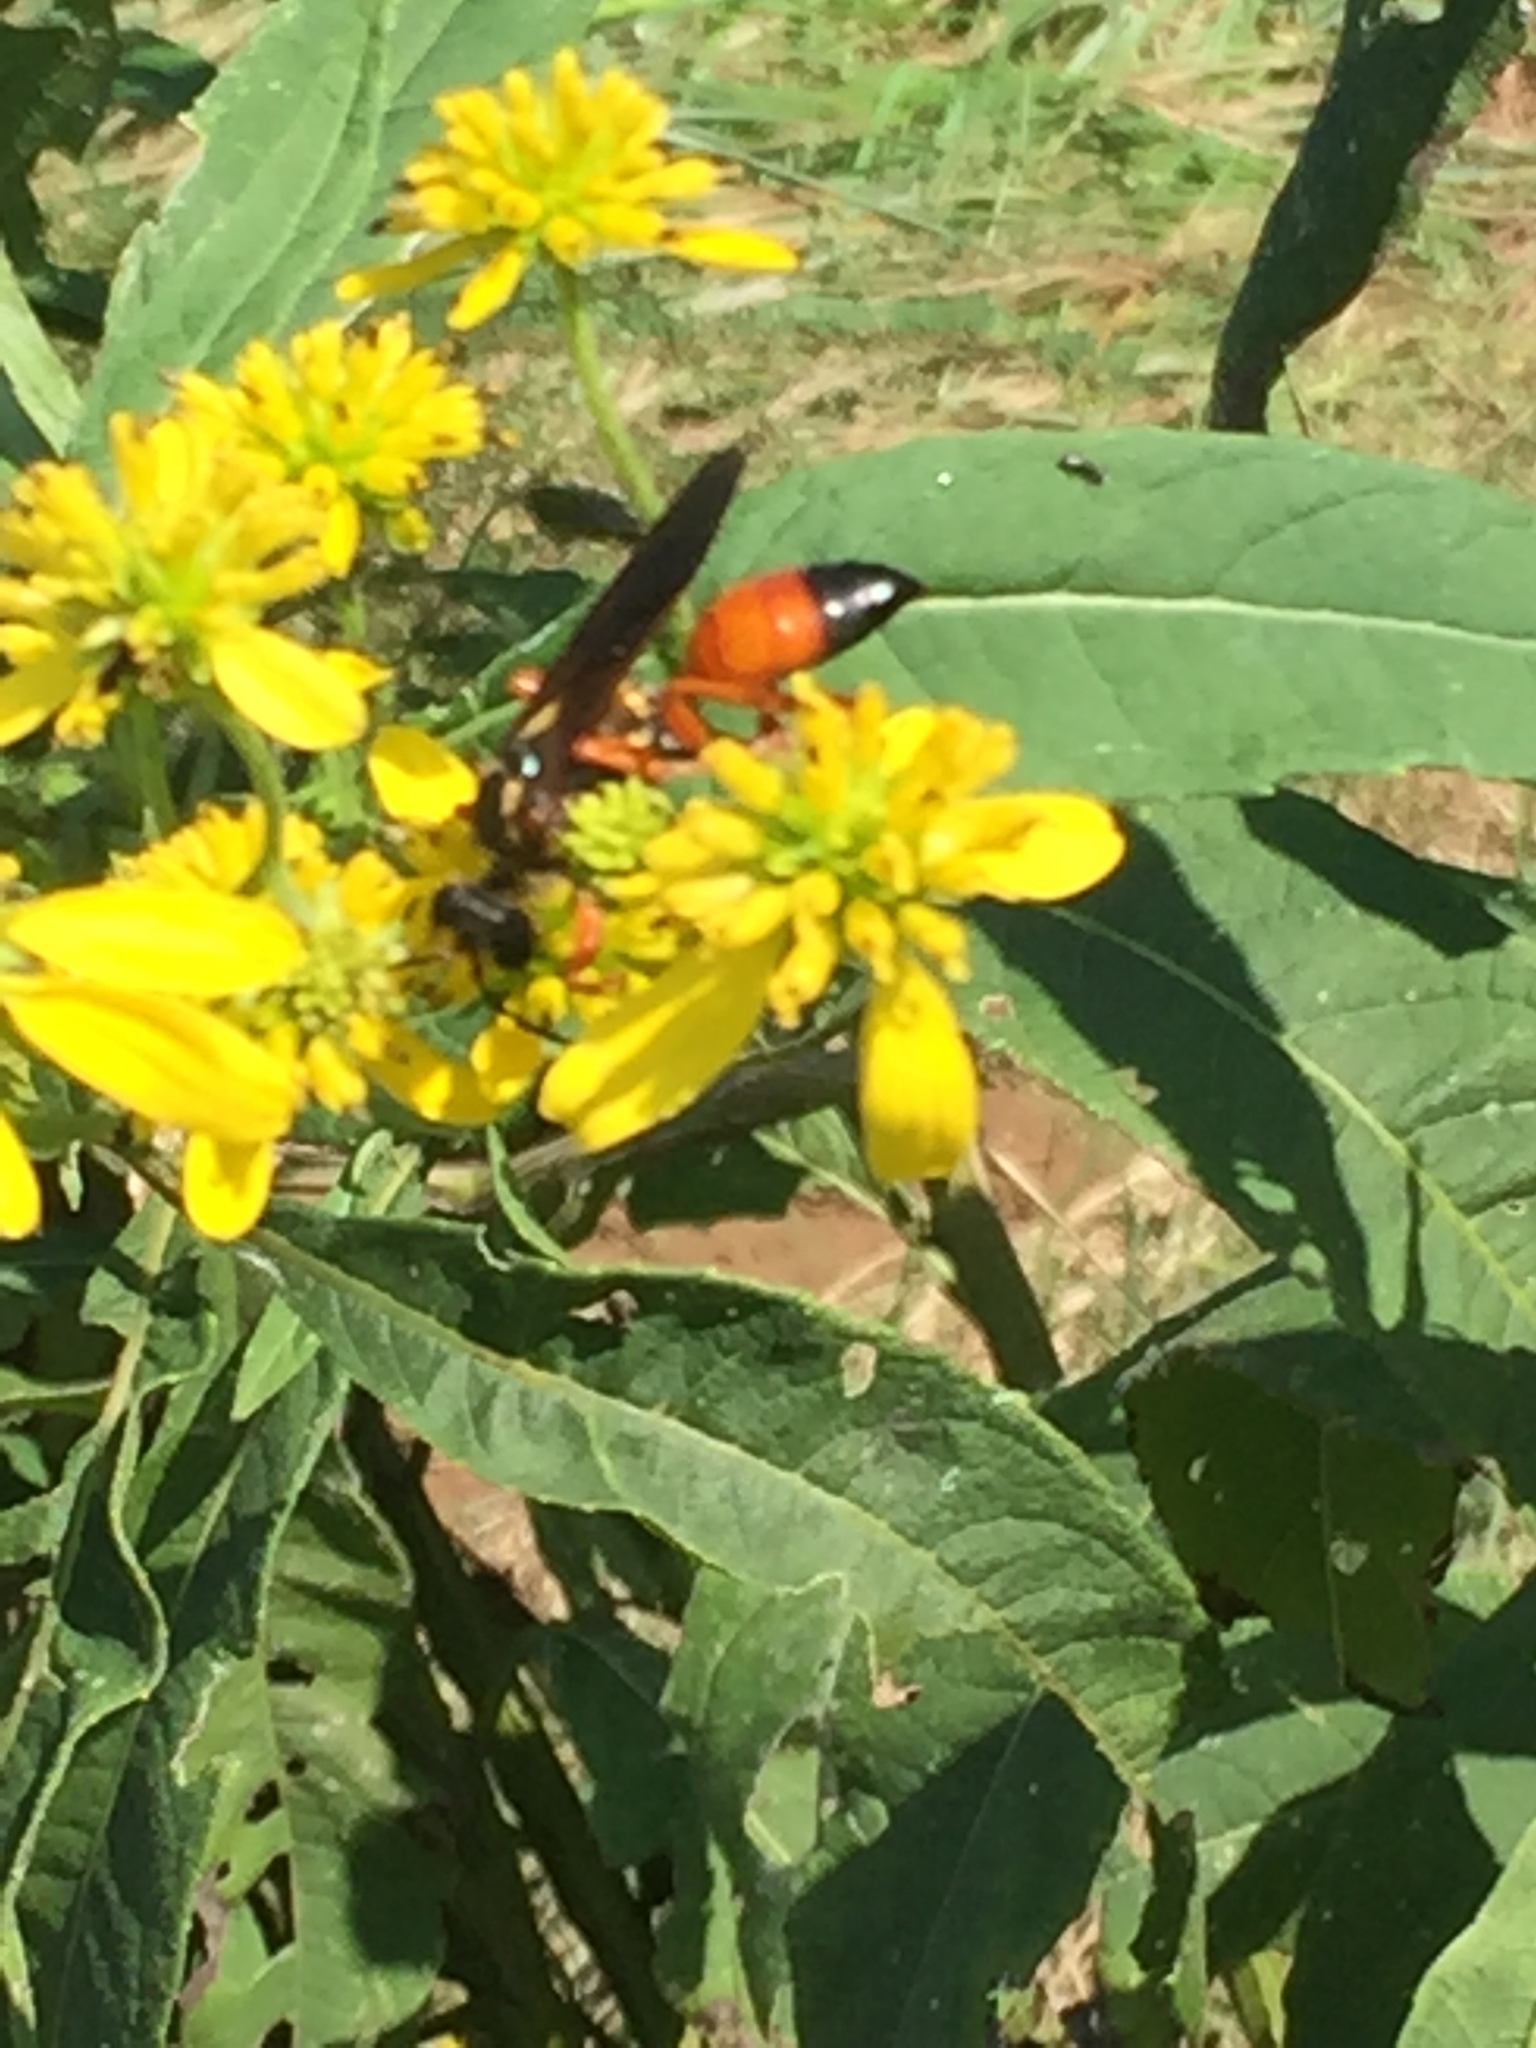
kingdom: Animalia
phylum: Arthropoda
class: Insecta
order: Hymenoptera
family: Sphecidae
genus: Sphex
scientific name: Sphex ichneumoneus
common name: Great golden digger wasp
